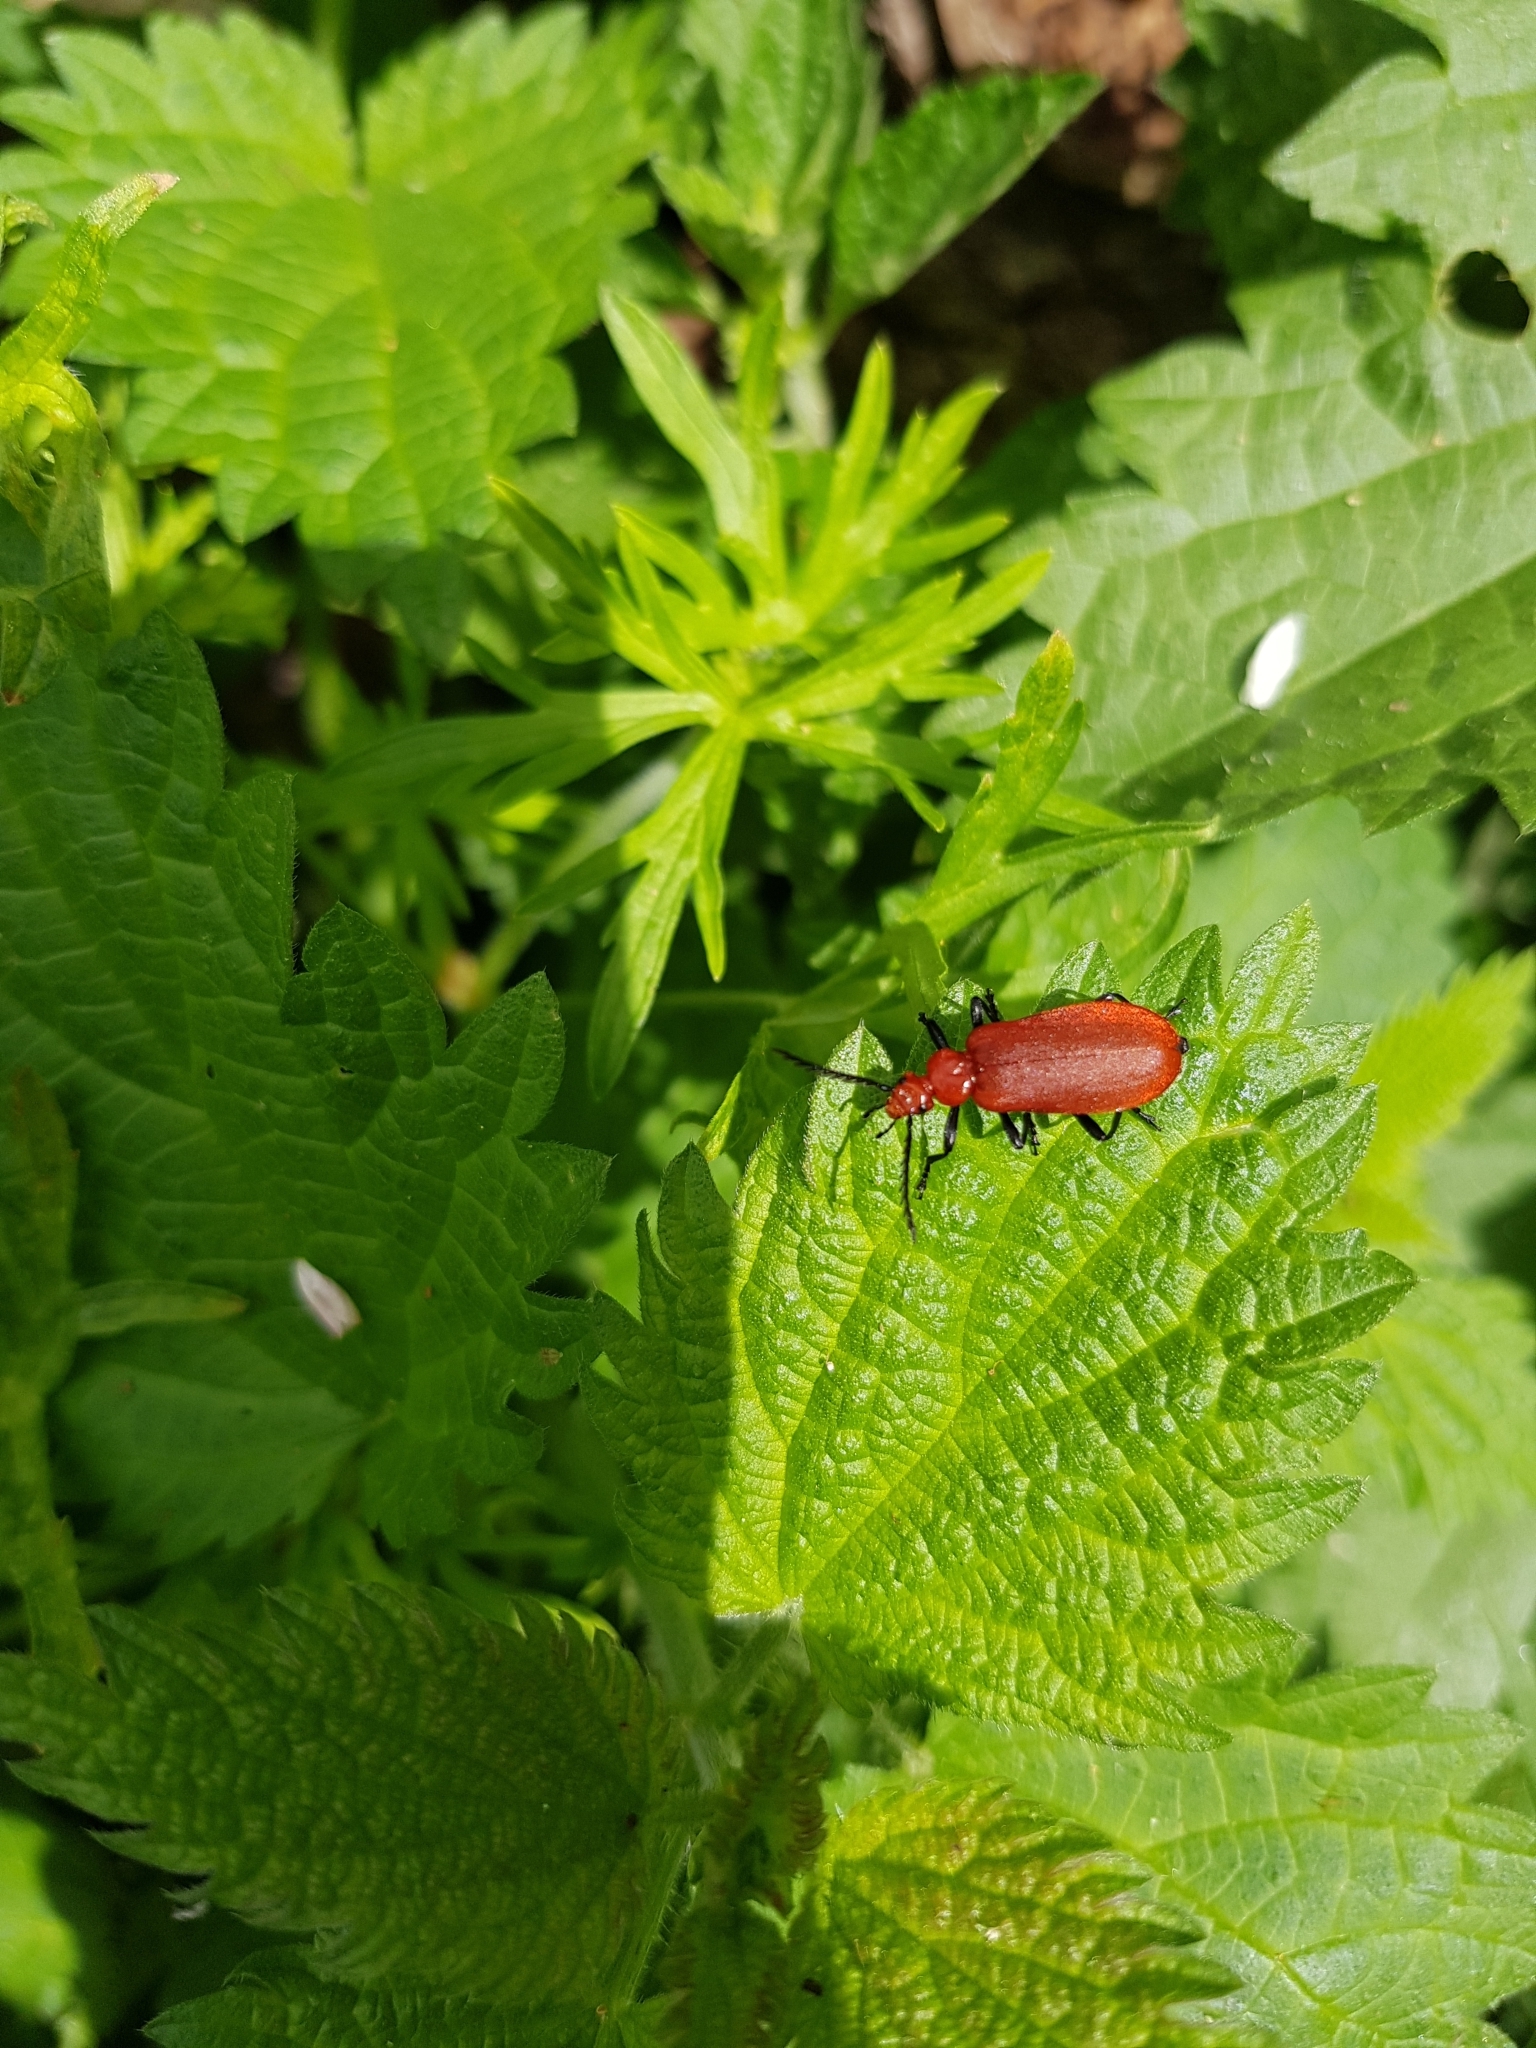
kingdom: Animalia
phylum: Arthropoda
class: Insecta
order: Coleoptera
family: Pyrochroidae
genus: Pyrochroa
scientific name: Pyrochroa serraticornis
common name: Red-headed cardinal beetle
